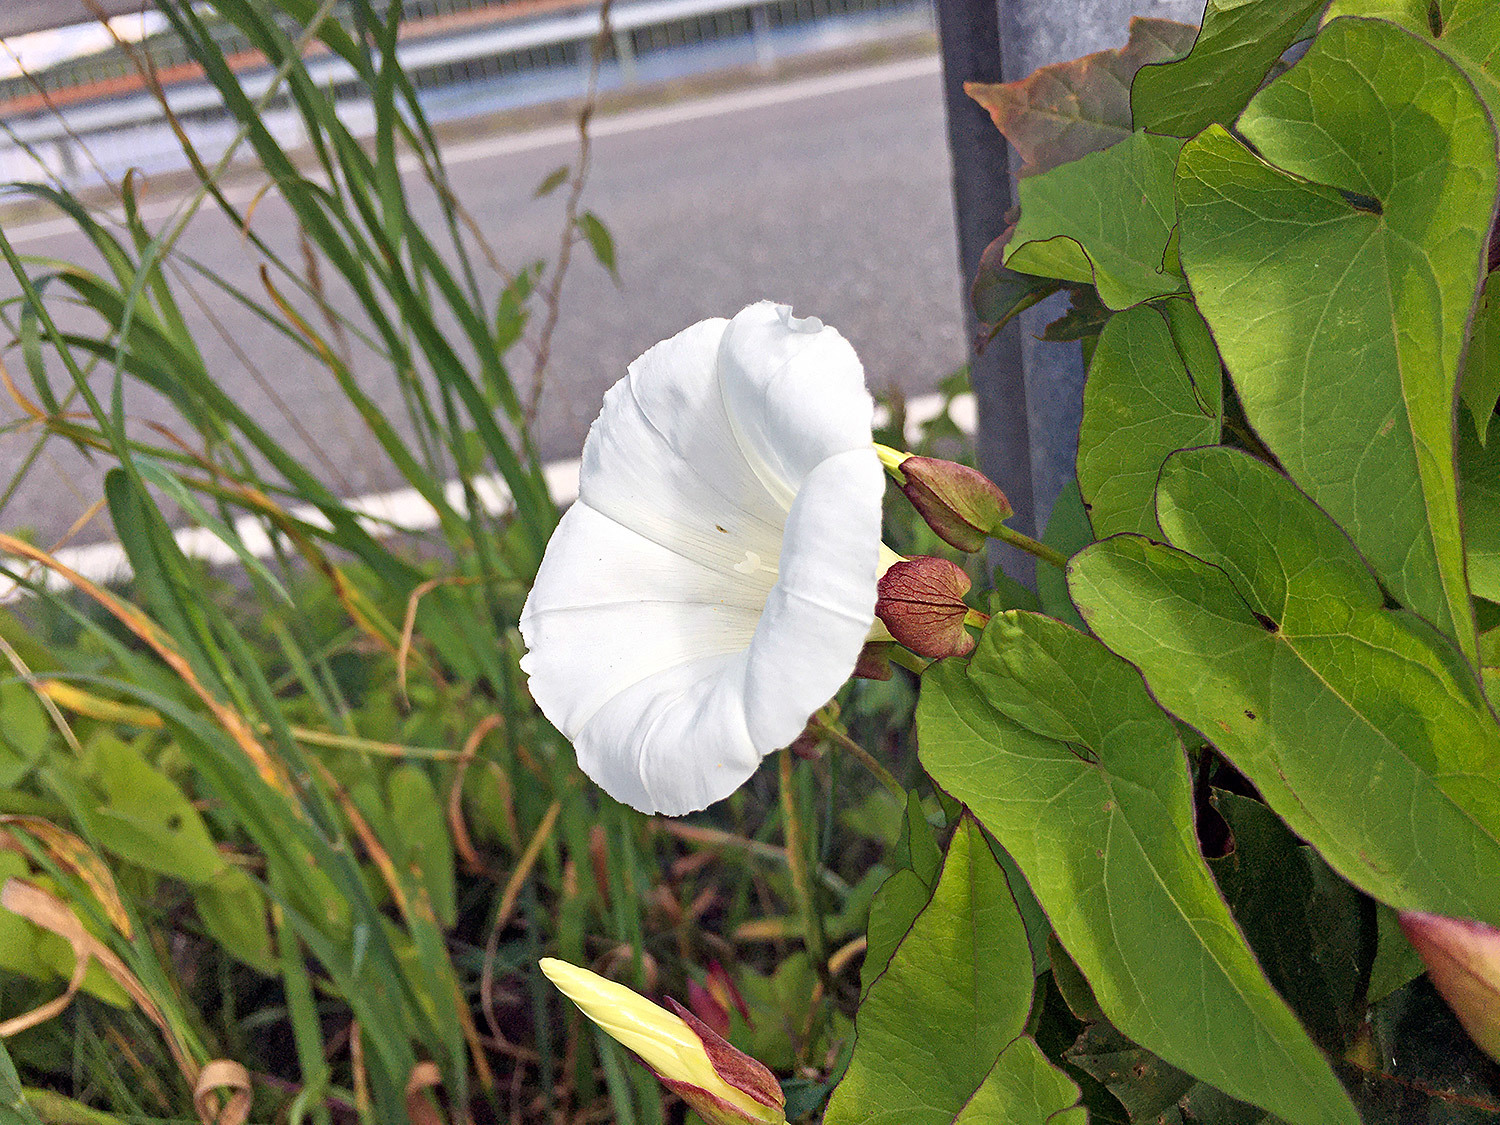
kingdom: Plantae
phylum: Tracheophyta
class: Magnoliopsida
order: Solanales
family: Convolvulaceae
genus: Calystegia
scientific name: Calystegia sepium
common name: Hedge bindweed
